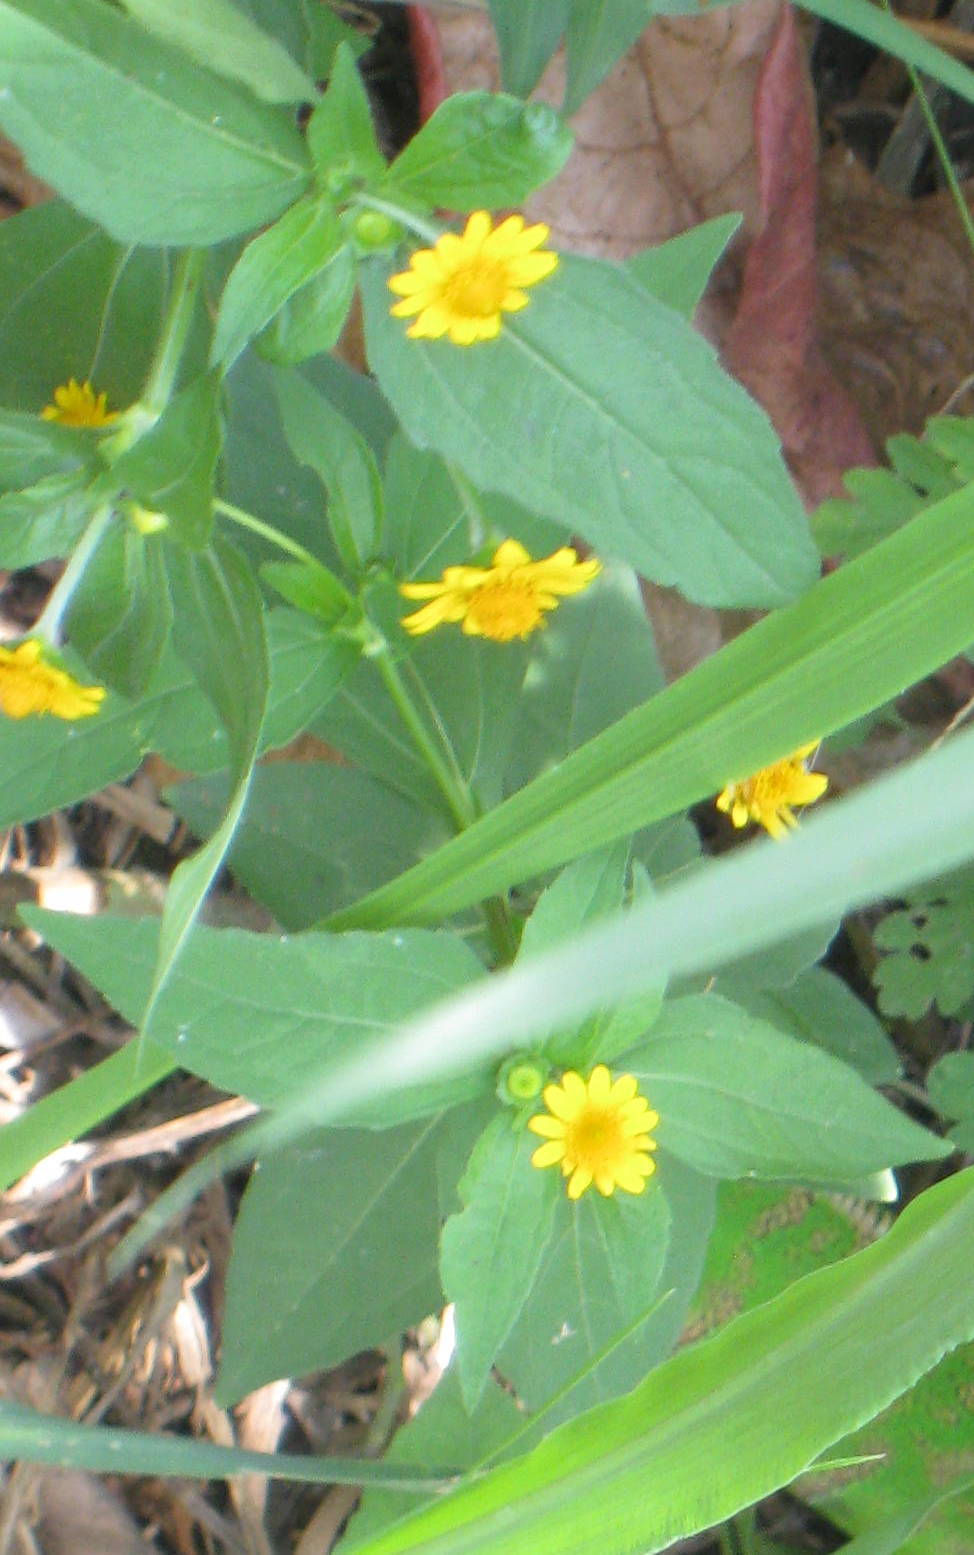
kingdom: Plantae
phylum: Tracheophyta
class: Magnoliopsida
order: Asterales
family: Asteraceae
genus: Melampodium
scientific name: Melampodium divaricatum
